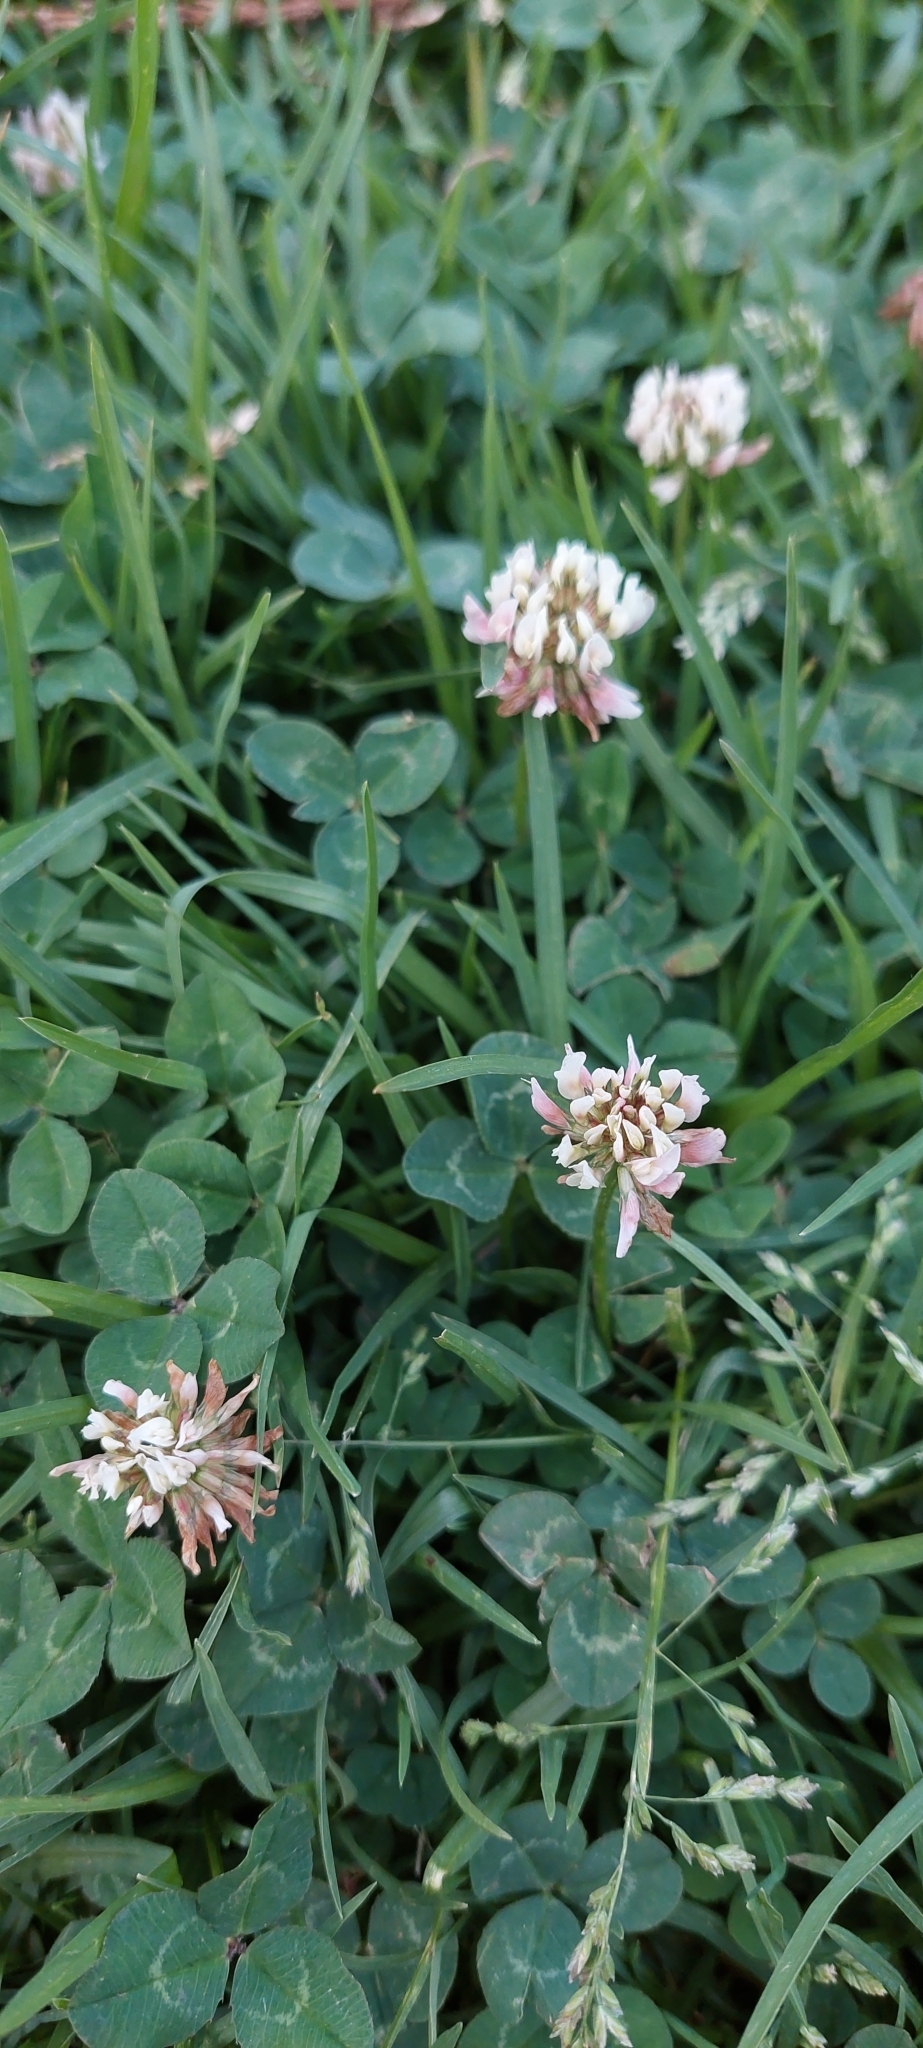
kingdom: Plantae
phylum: Tracheophyta
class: Magnoliopsida
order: Fabales
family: Fabaceae
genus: Trifolium
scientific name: Trifolium repens
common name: White clover
